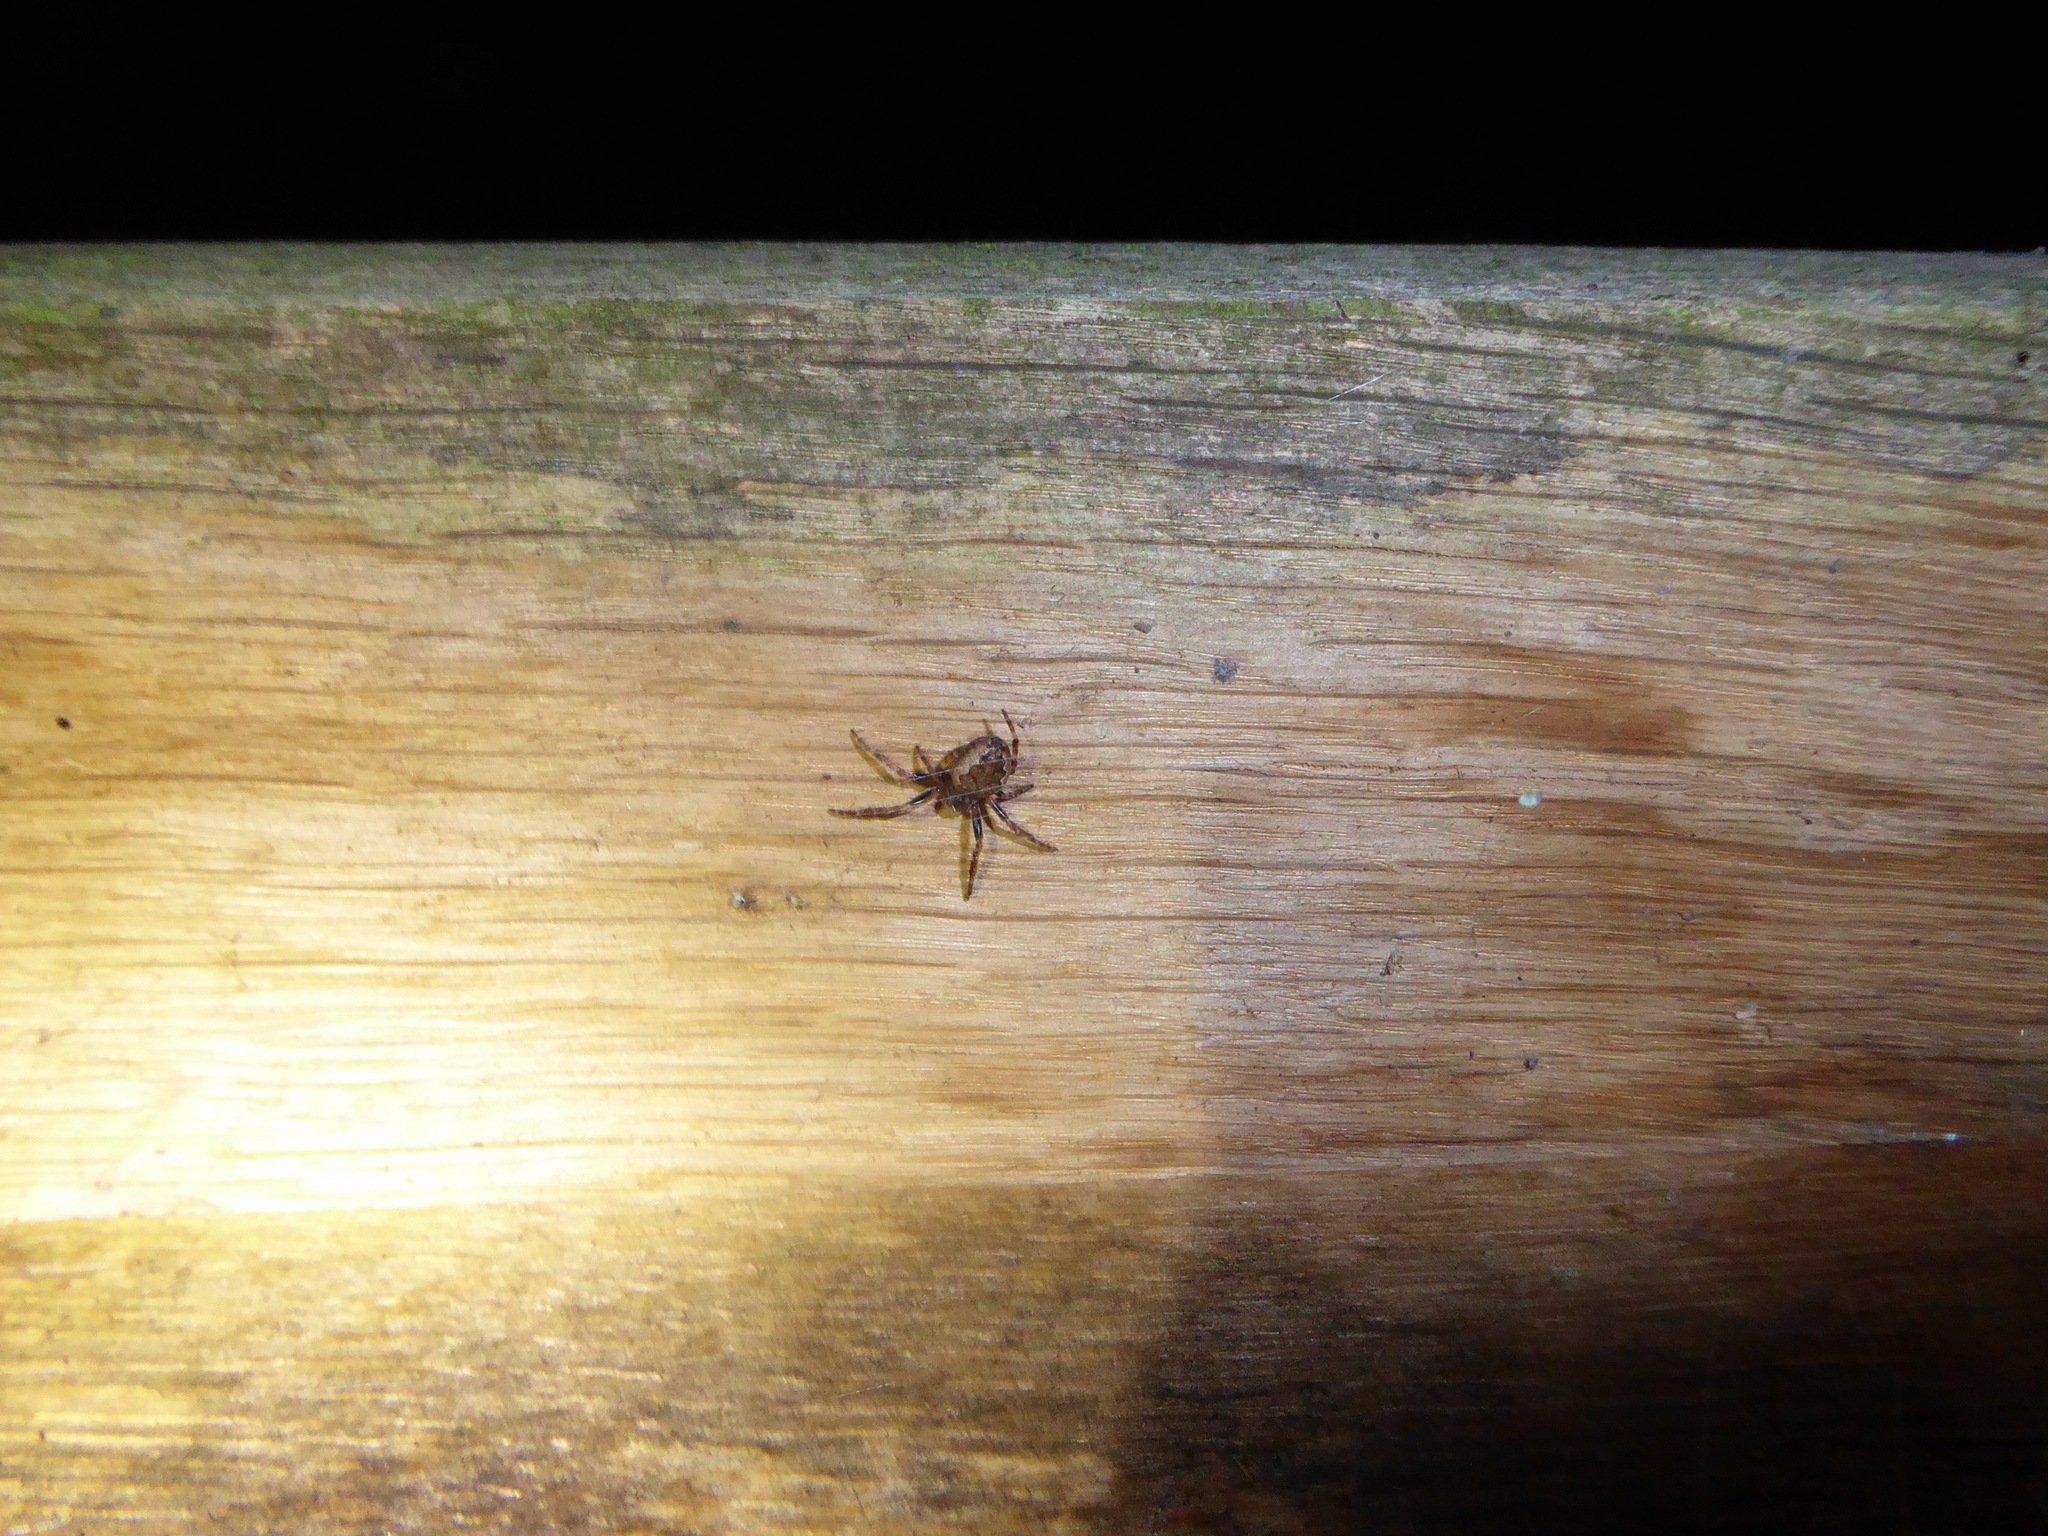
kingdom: Animalia
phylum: Arthropoda
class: Arachnida
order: Araneae
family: Araneidae
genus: Nuctenea
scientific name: Nuctenea umbratica
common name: Toad spider
